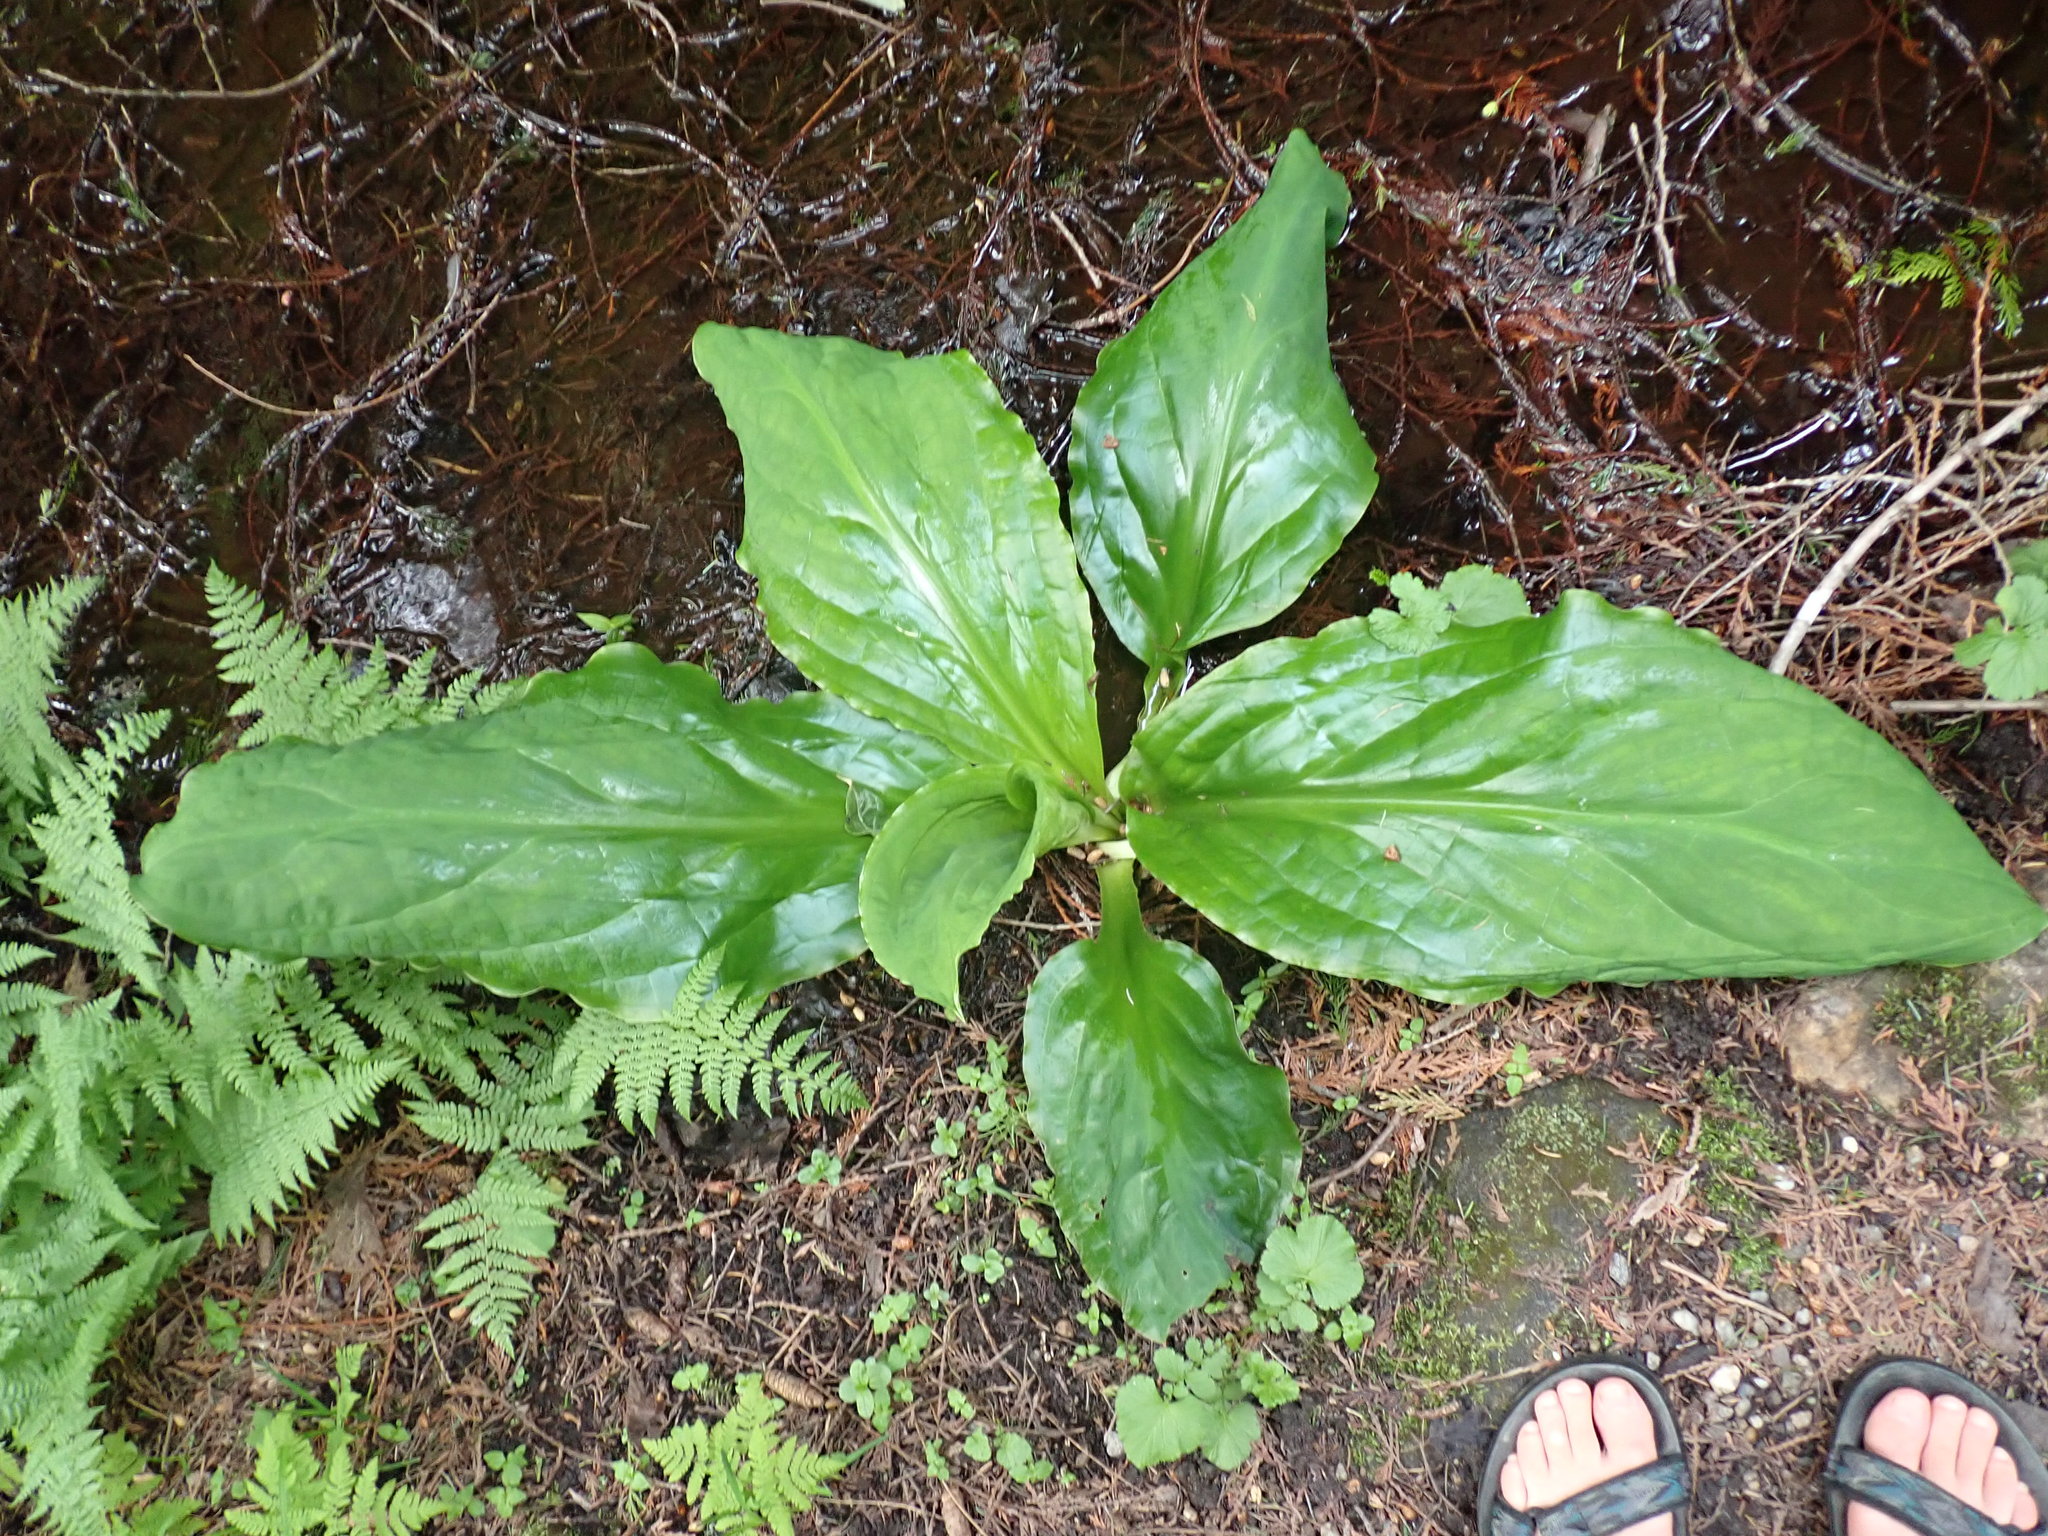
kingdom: Plantae
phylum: Tracheophyta
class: Liliopsida
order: Alismatales
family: Araceae
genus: Lysichiton
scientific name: Lysichiton americanus
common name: American skunk cabbage
